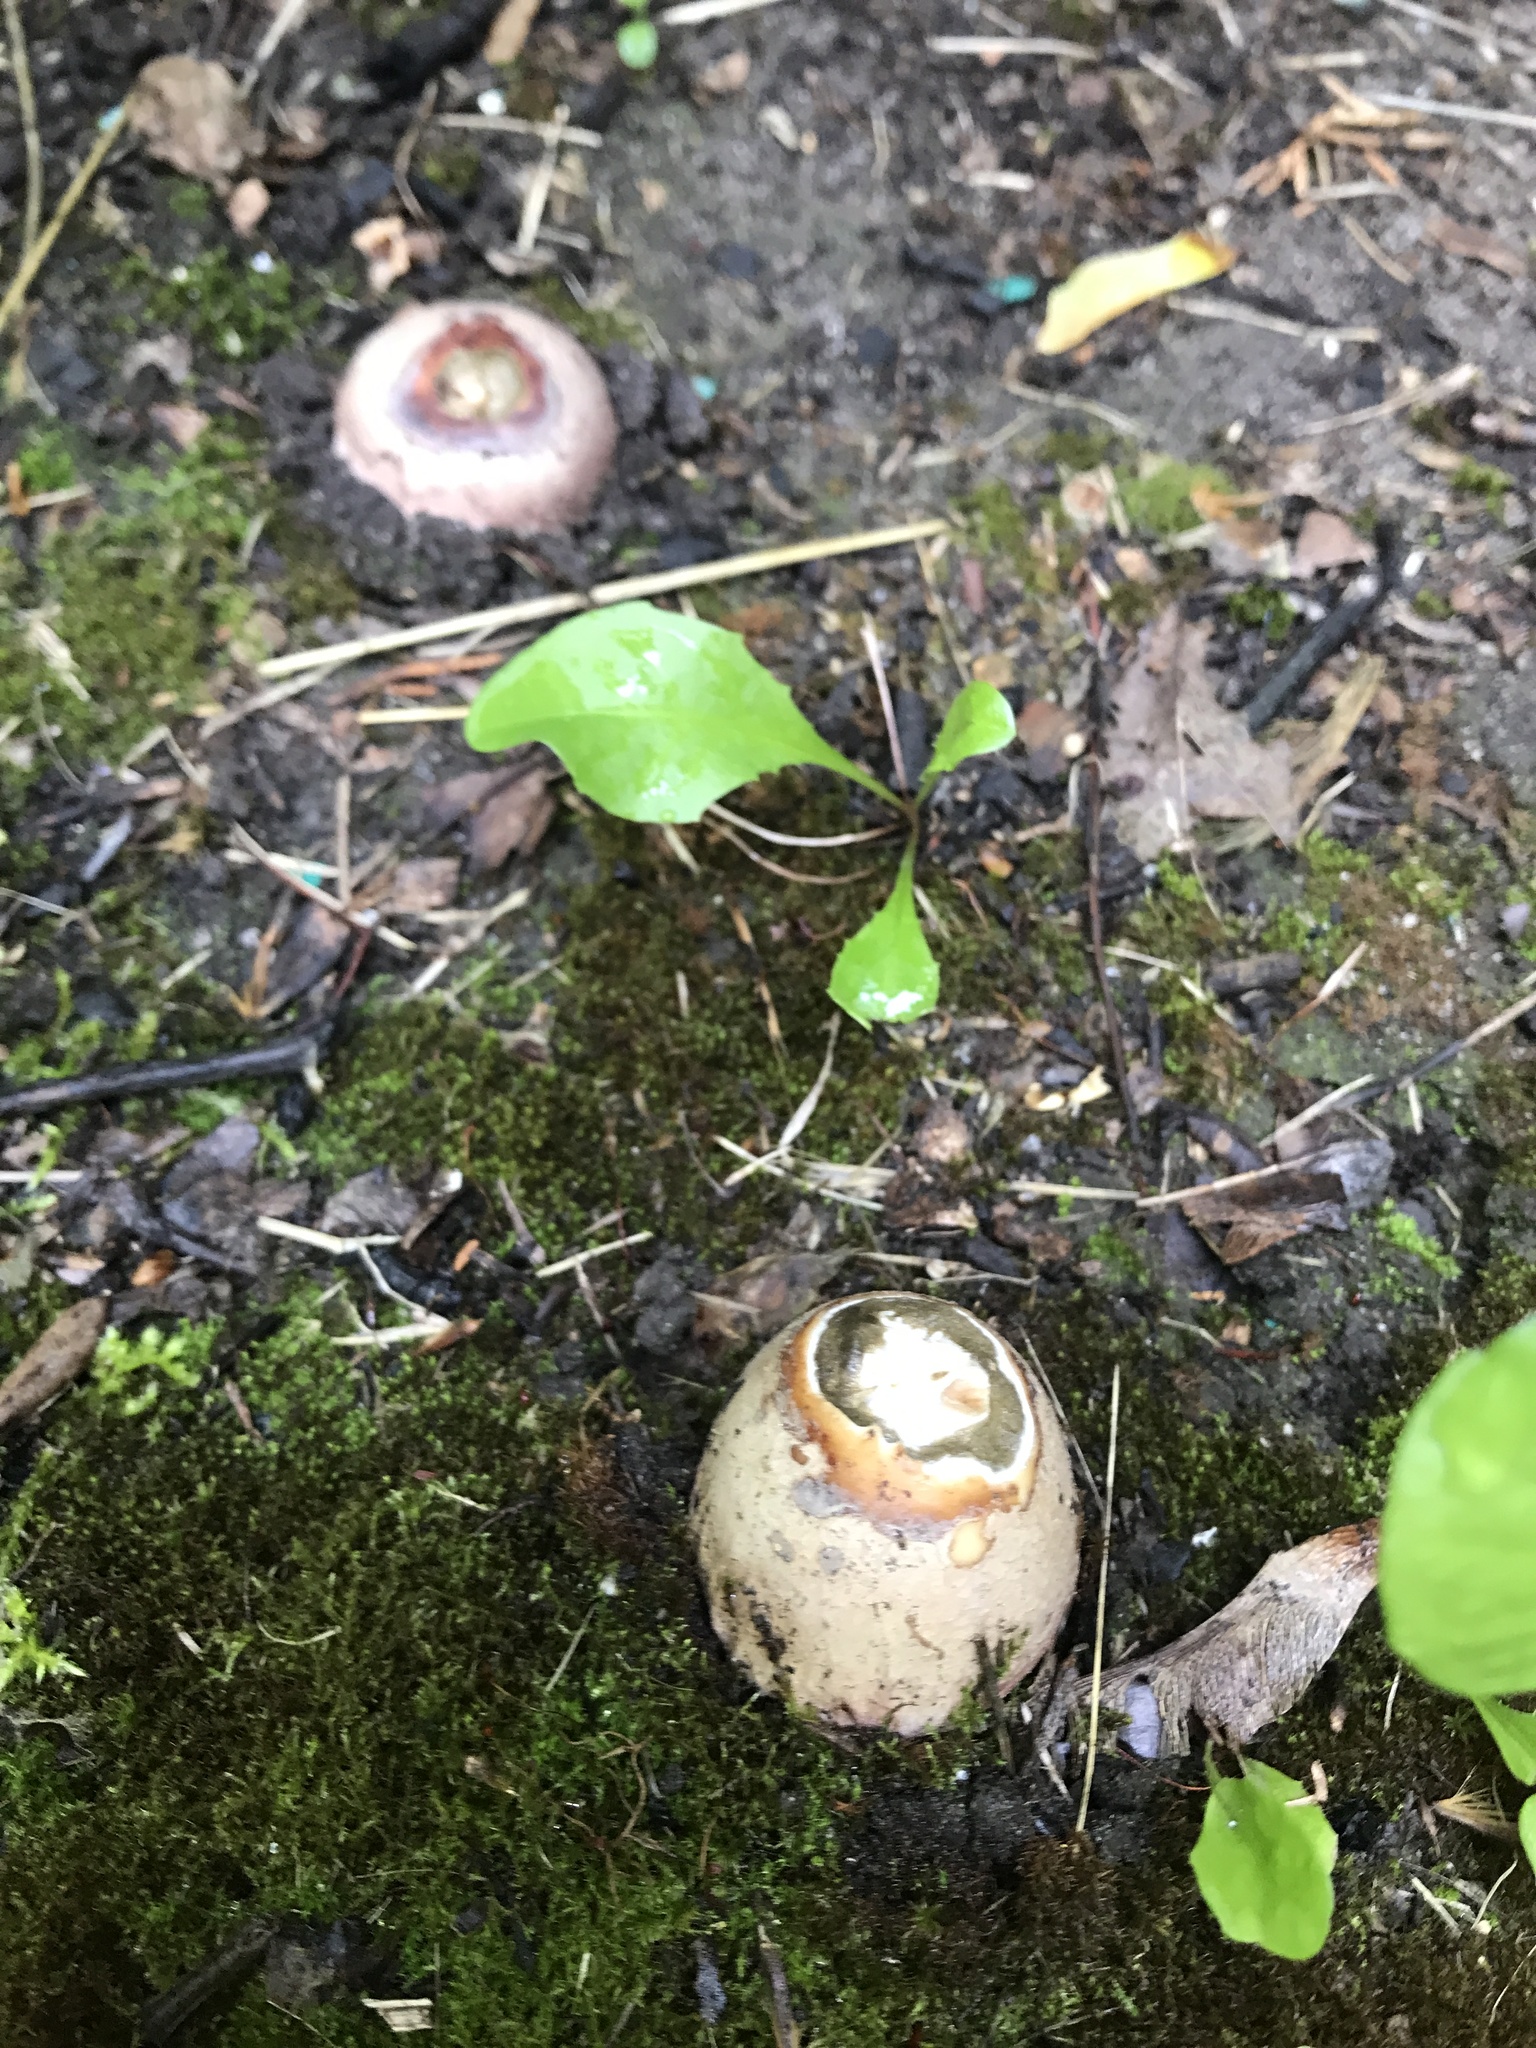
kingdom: Fungi
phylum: Basidiomycota
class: Agaricomycetes
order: Phallales
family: Phallaceae
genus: Phallus
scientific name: Phallus hadriani
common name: Sand stinkhorn
